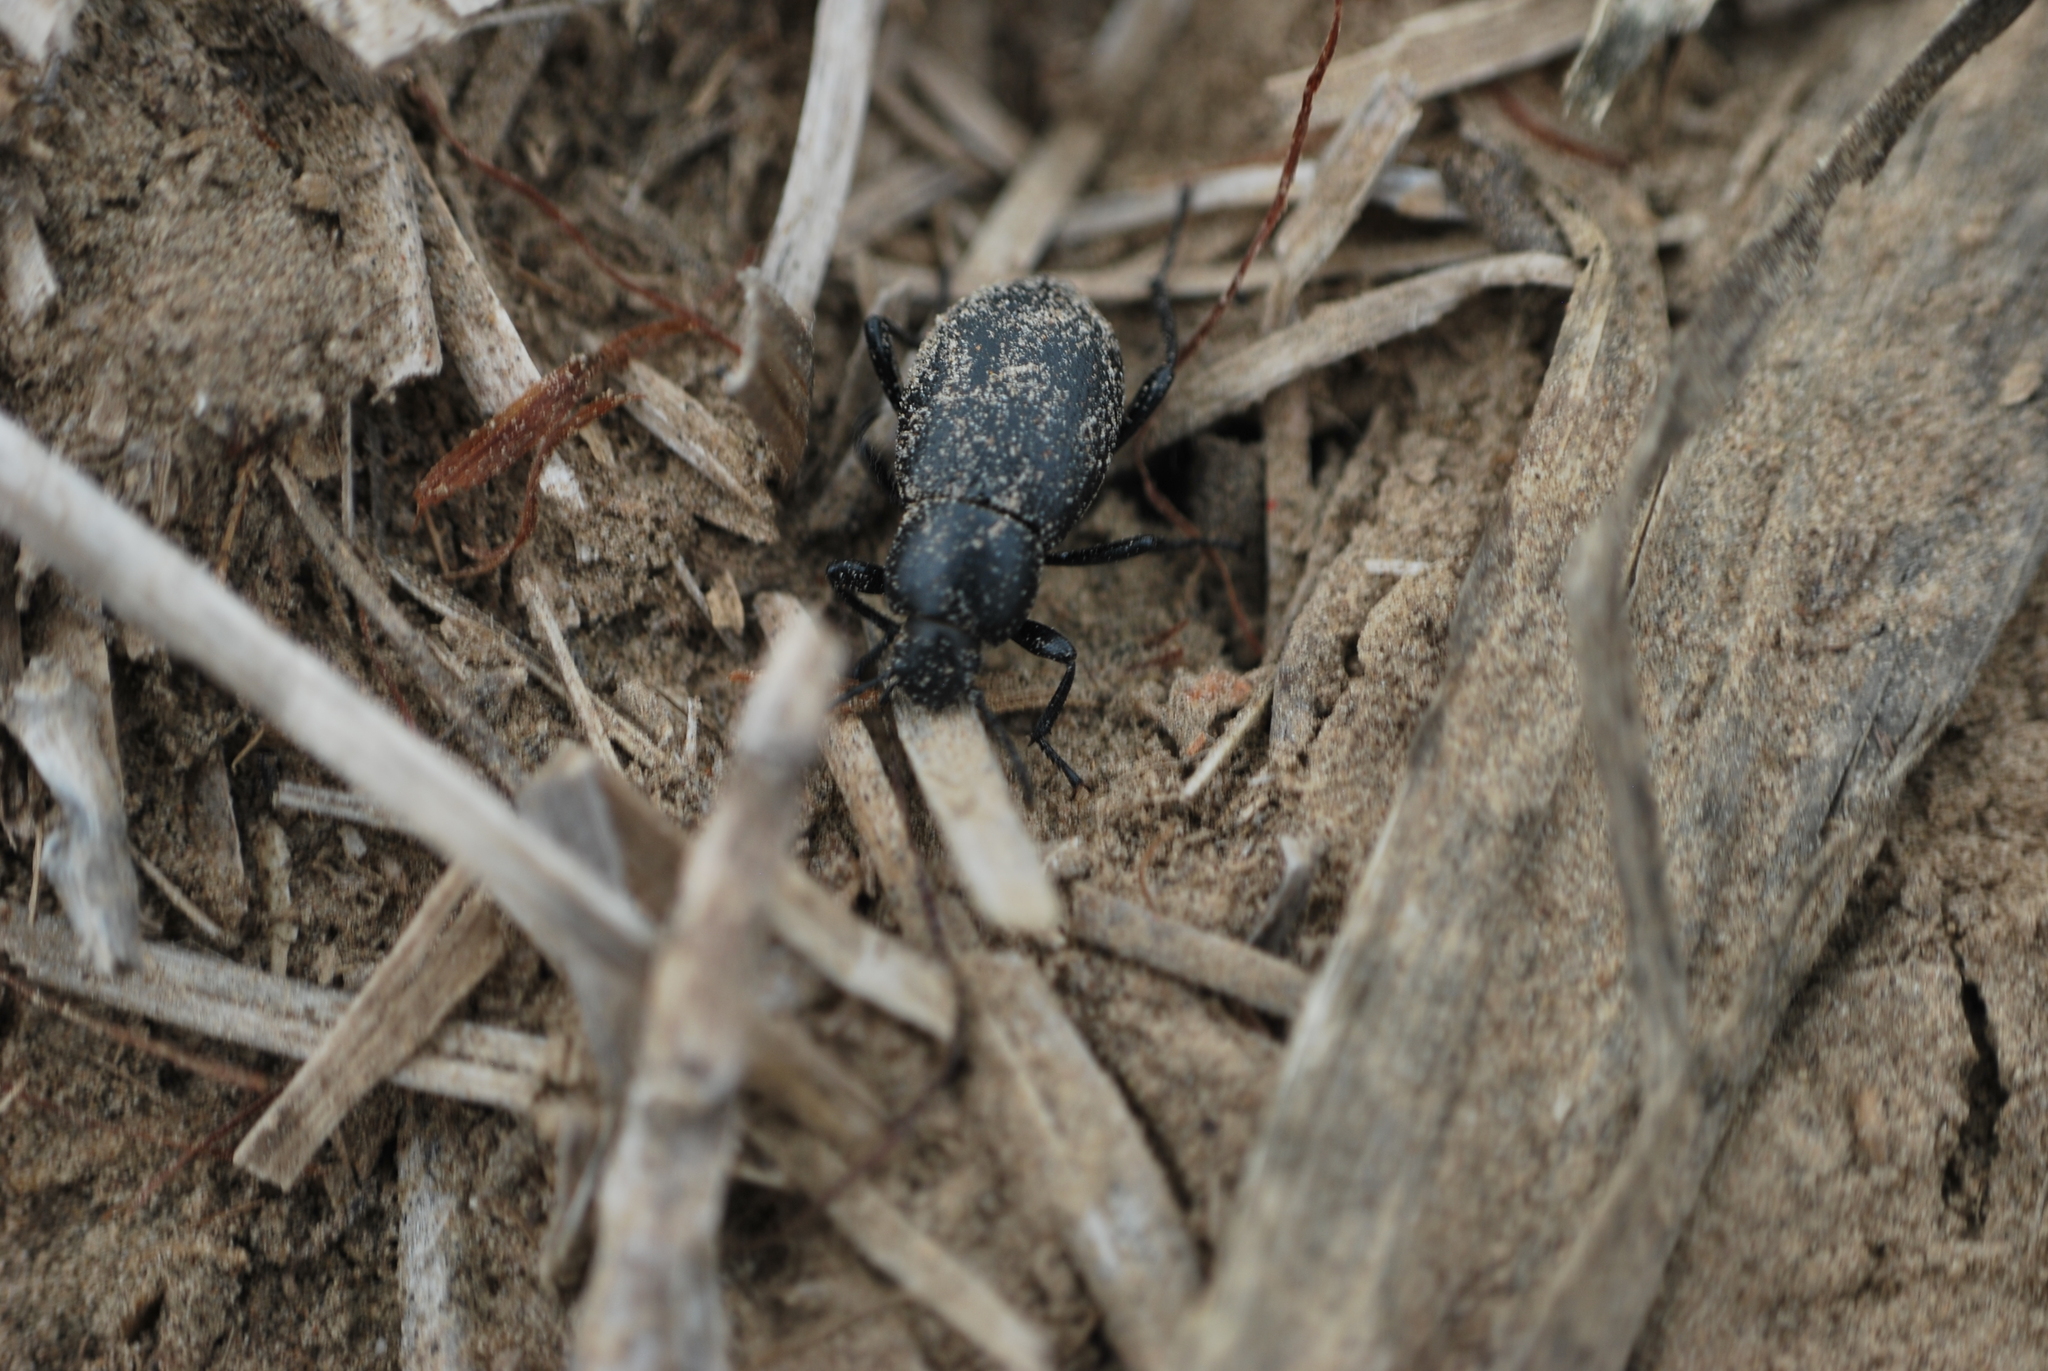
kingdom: Animalia
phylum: Arthropoda
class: Insecta
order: Coleoptera
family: Tenebrionidae
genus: Eleodes
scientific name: Eleodes extricata
